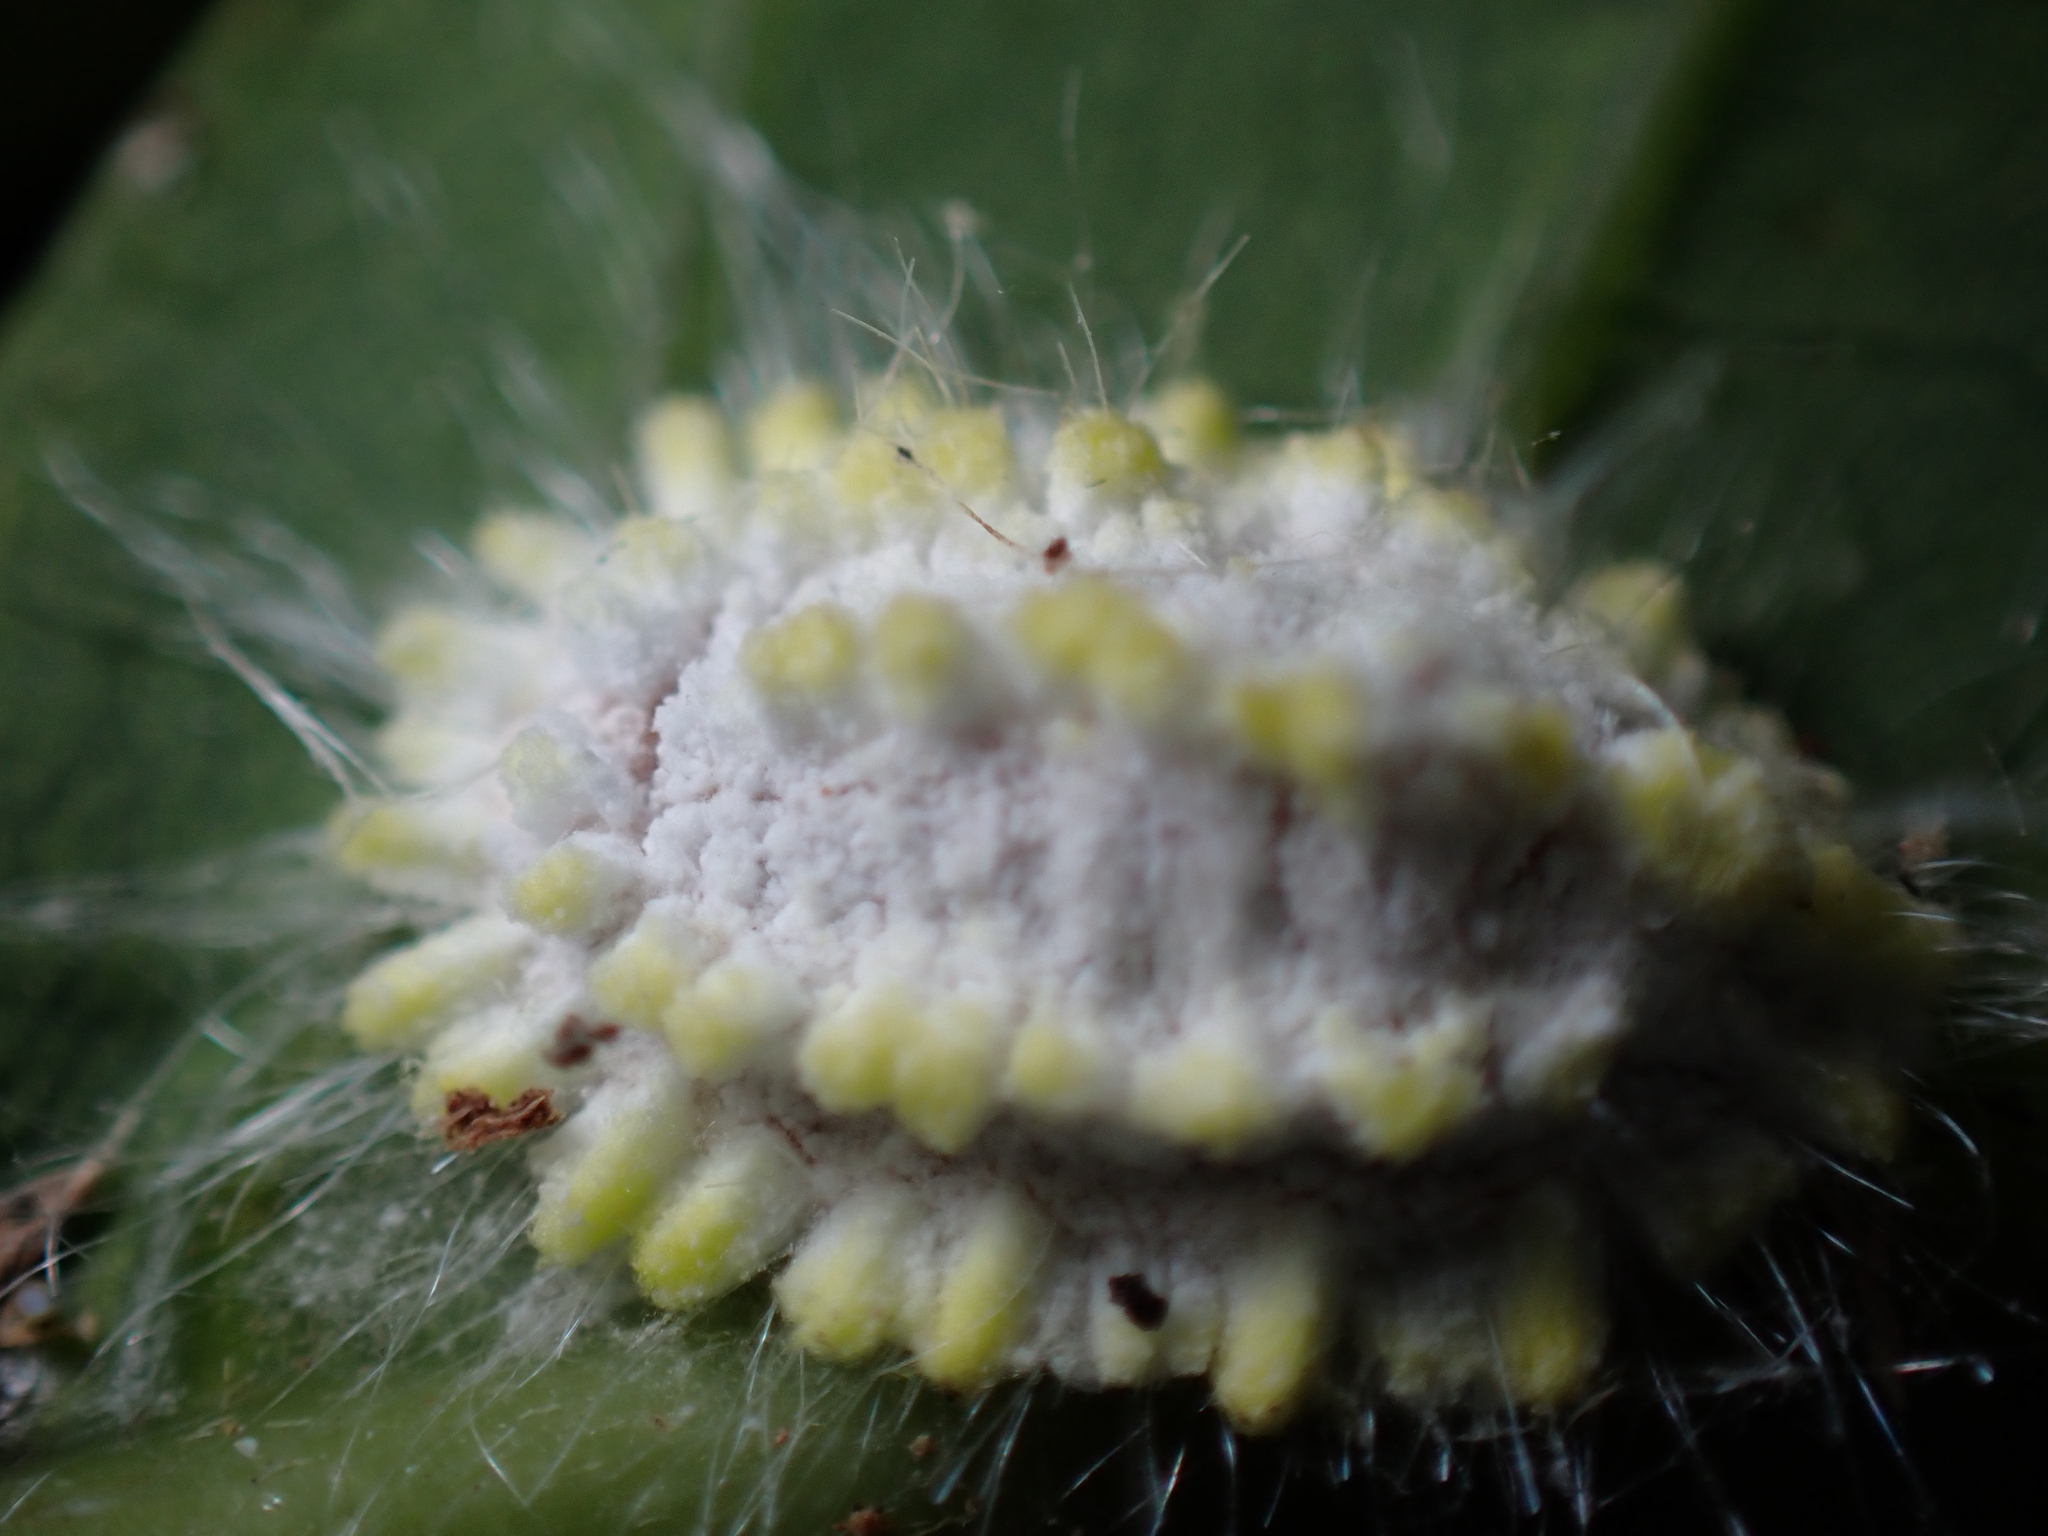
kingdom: Animalia
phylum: Arthropoda
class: Insecta
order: Hemiptera
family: Margarodidae
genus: Icerya
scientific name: Icerya seychellarum
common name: Iceplant scale
